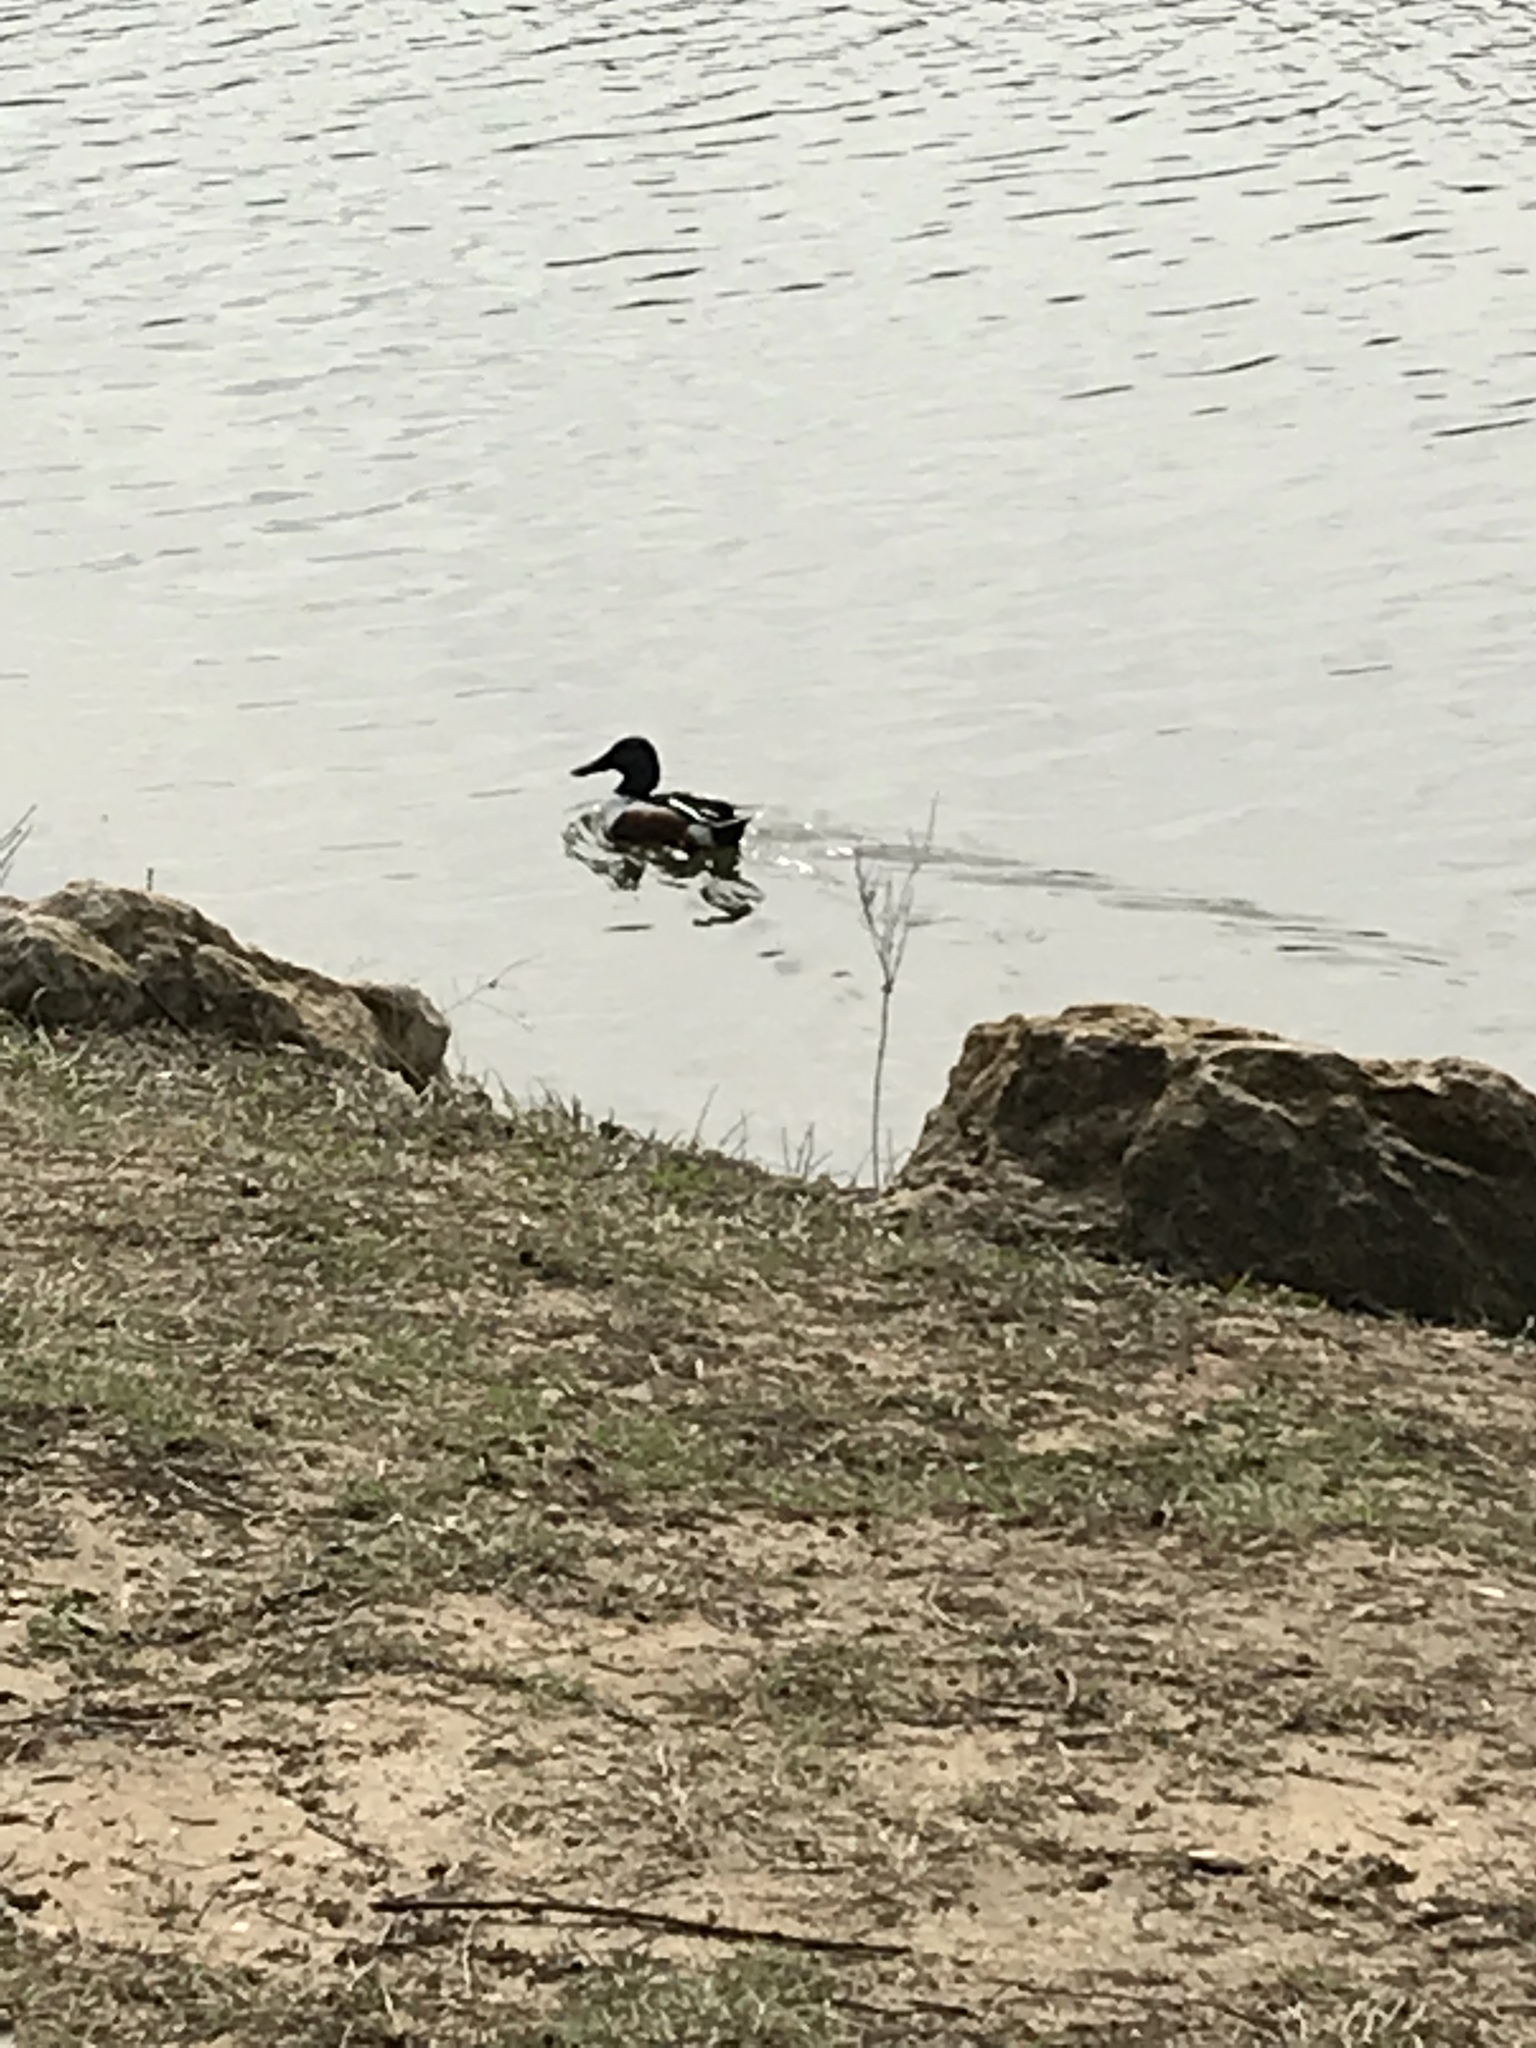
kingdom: Animalia
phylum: Chordata
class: Aves
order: Anseriformes
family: Anatidae
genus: Spatula
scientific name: Spatula clypeata
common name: Northern shoveler
